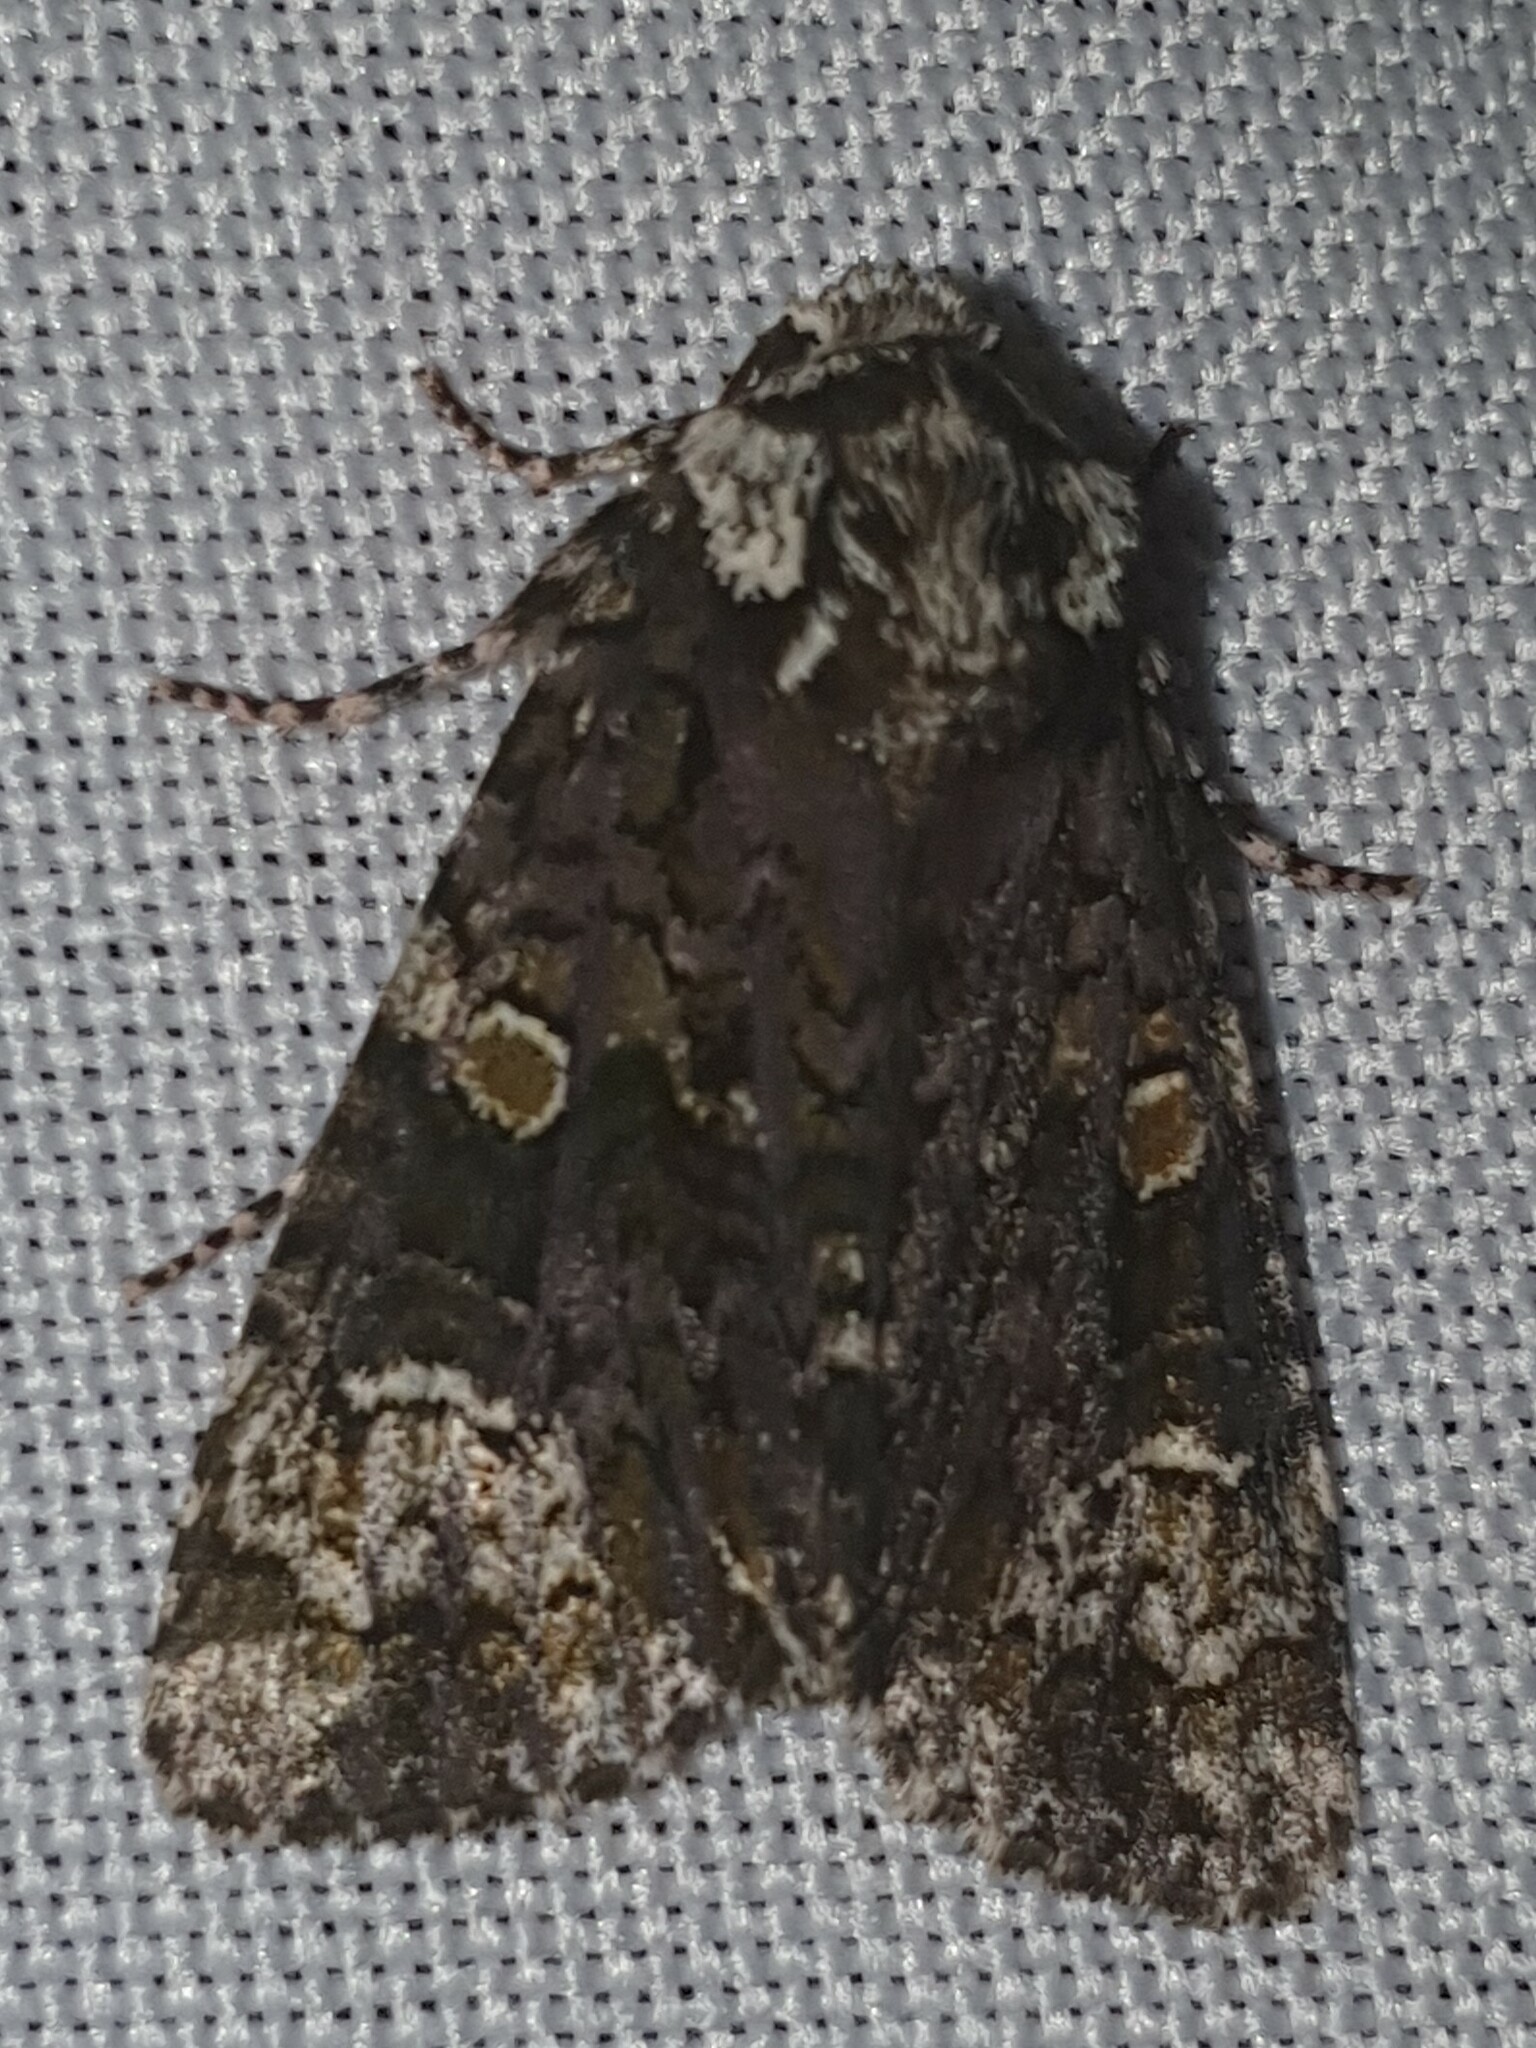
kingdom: Animalia
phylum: Arthropoda
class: Insecta
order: Lepidoptera
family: Noctuidae
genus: Craniophora
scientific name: Craniophora ligustri
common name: Coronet
